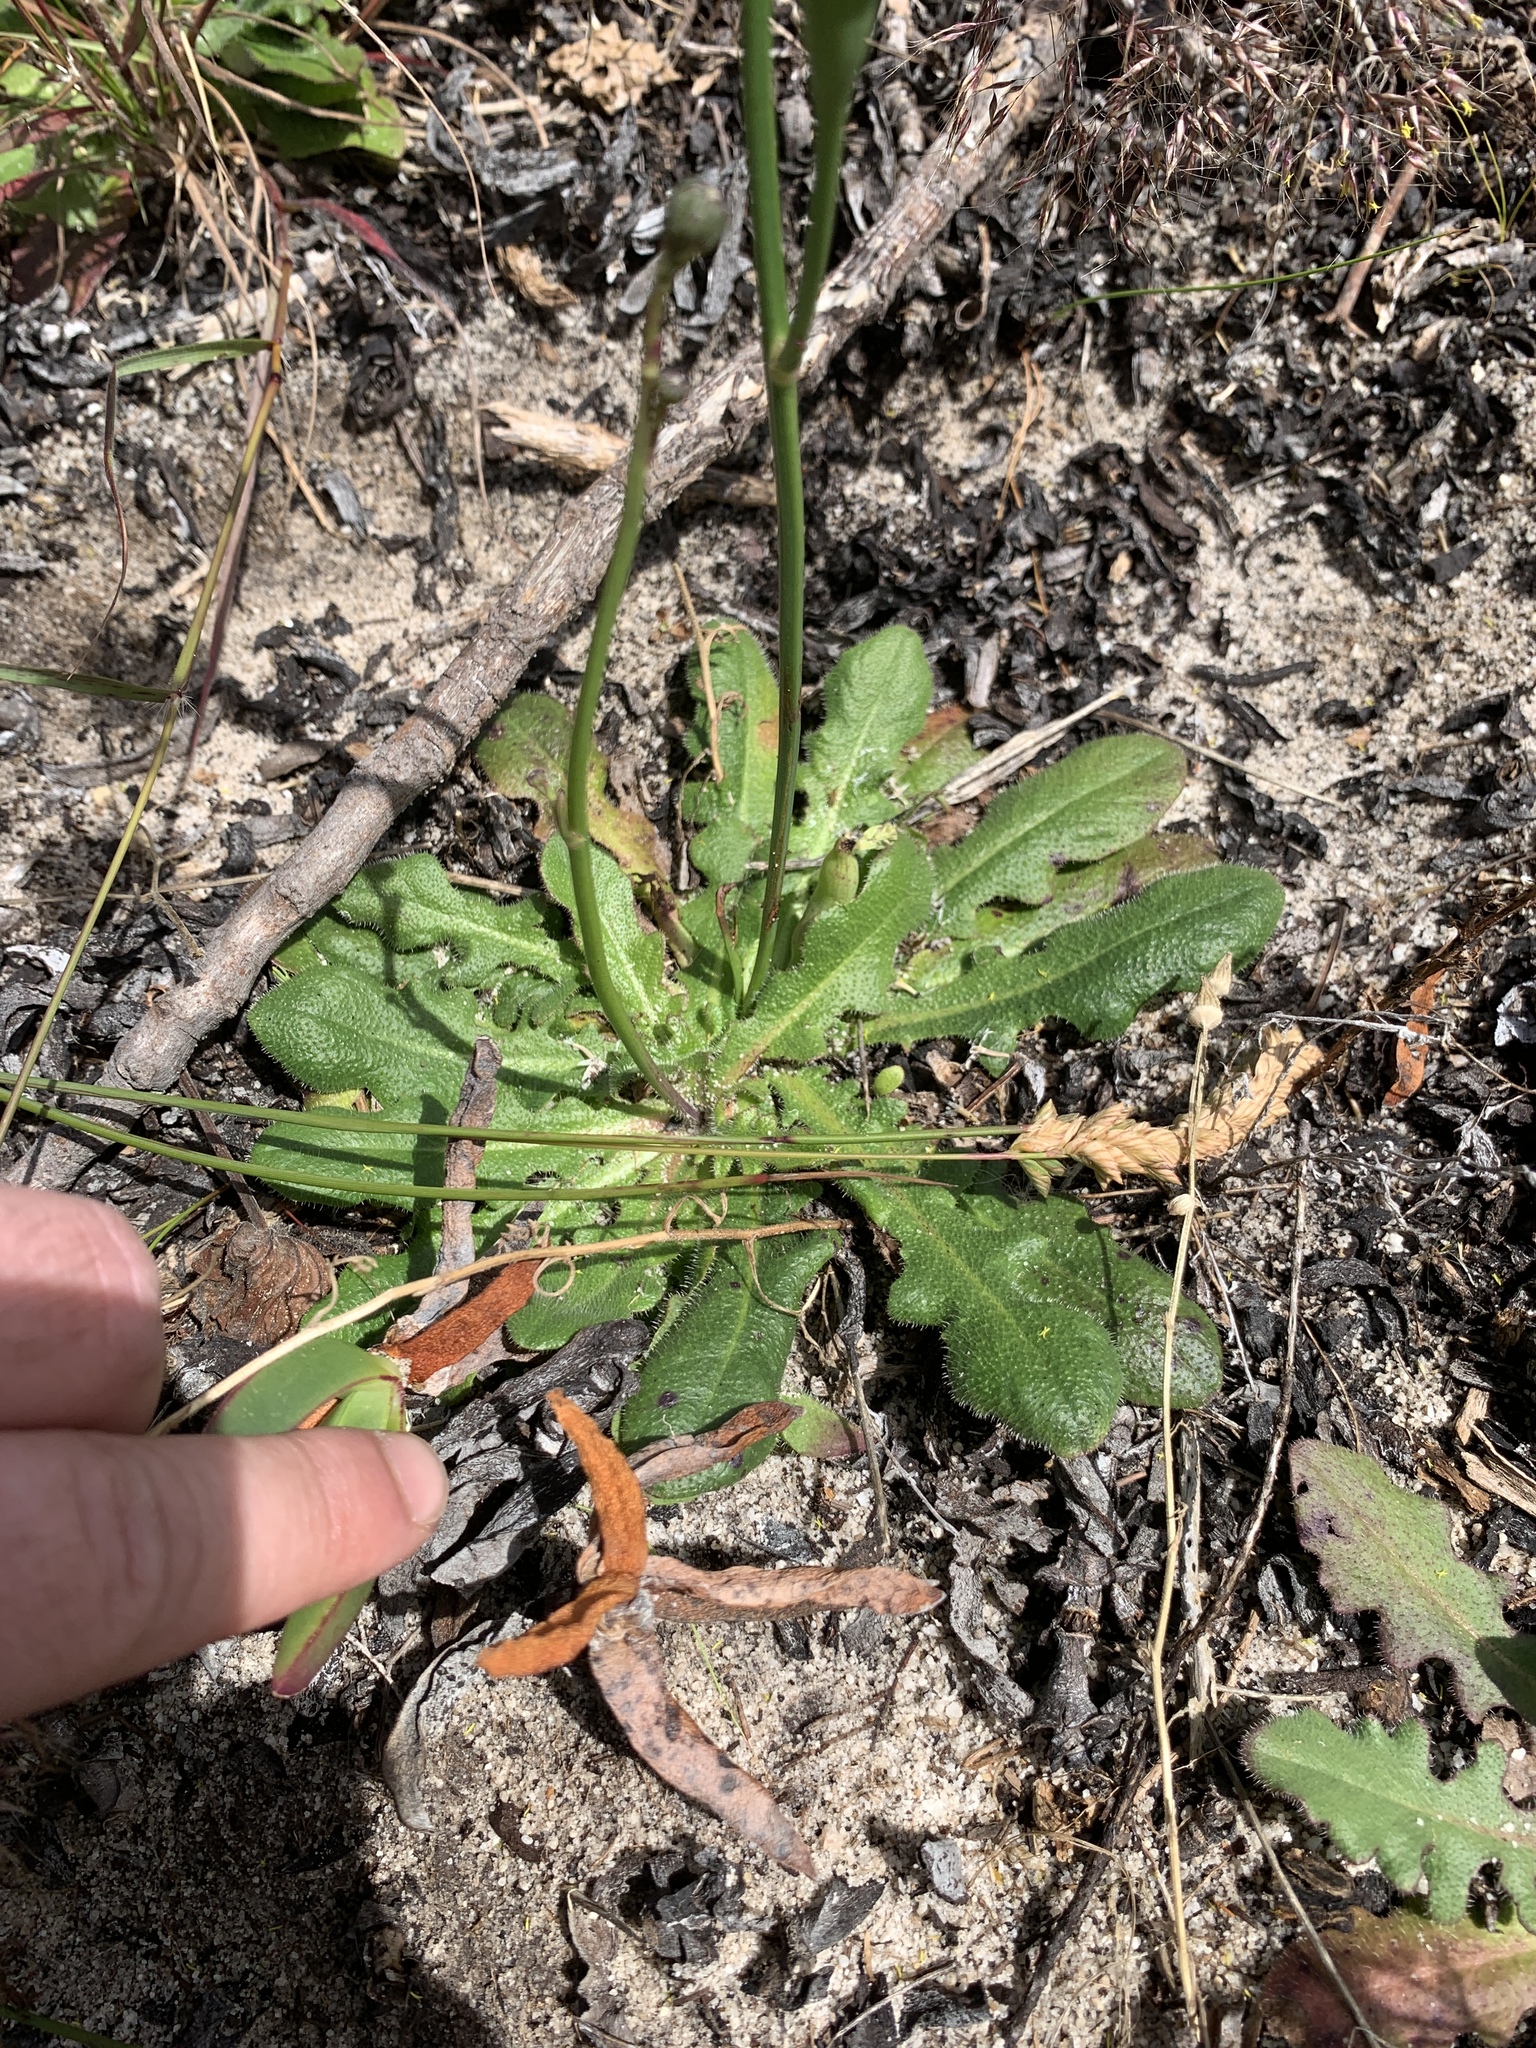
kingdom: Plantae
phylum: Tracheophyta
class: Magnoliopsida
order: Asterales
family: Asteraceae
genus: Hypochaeris
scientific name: Hypochaeris radicata
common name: Flatweed
